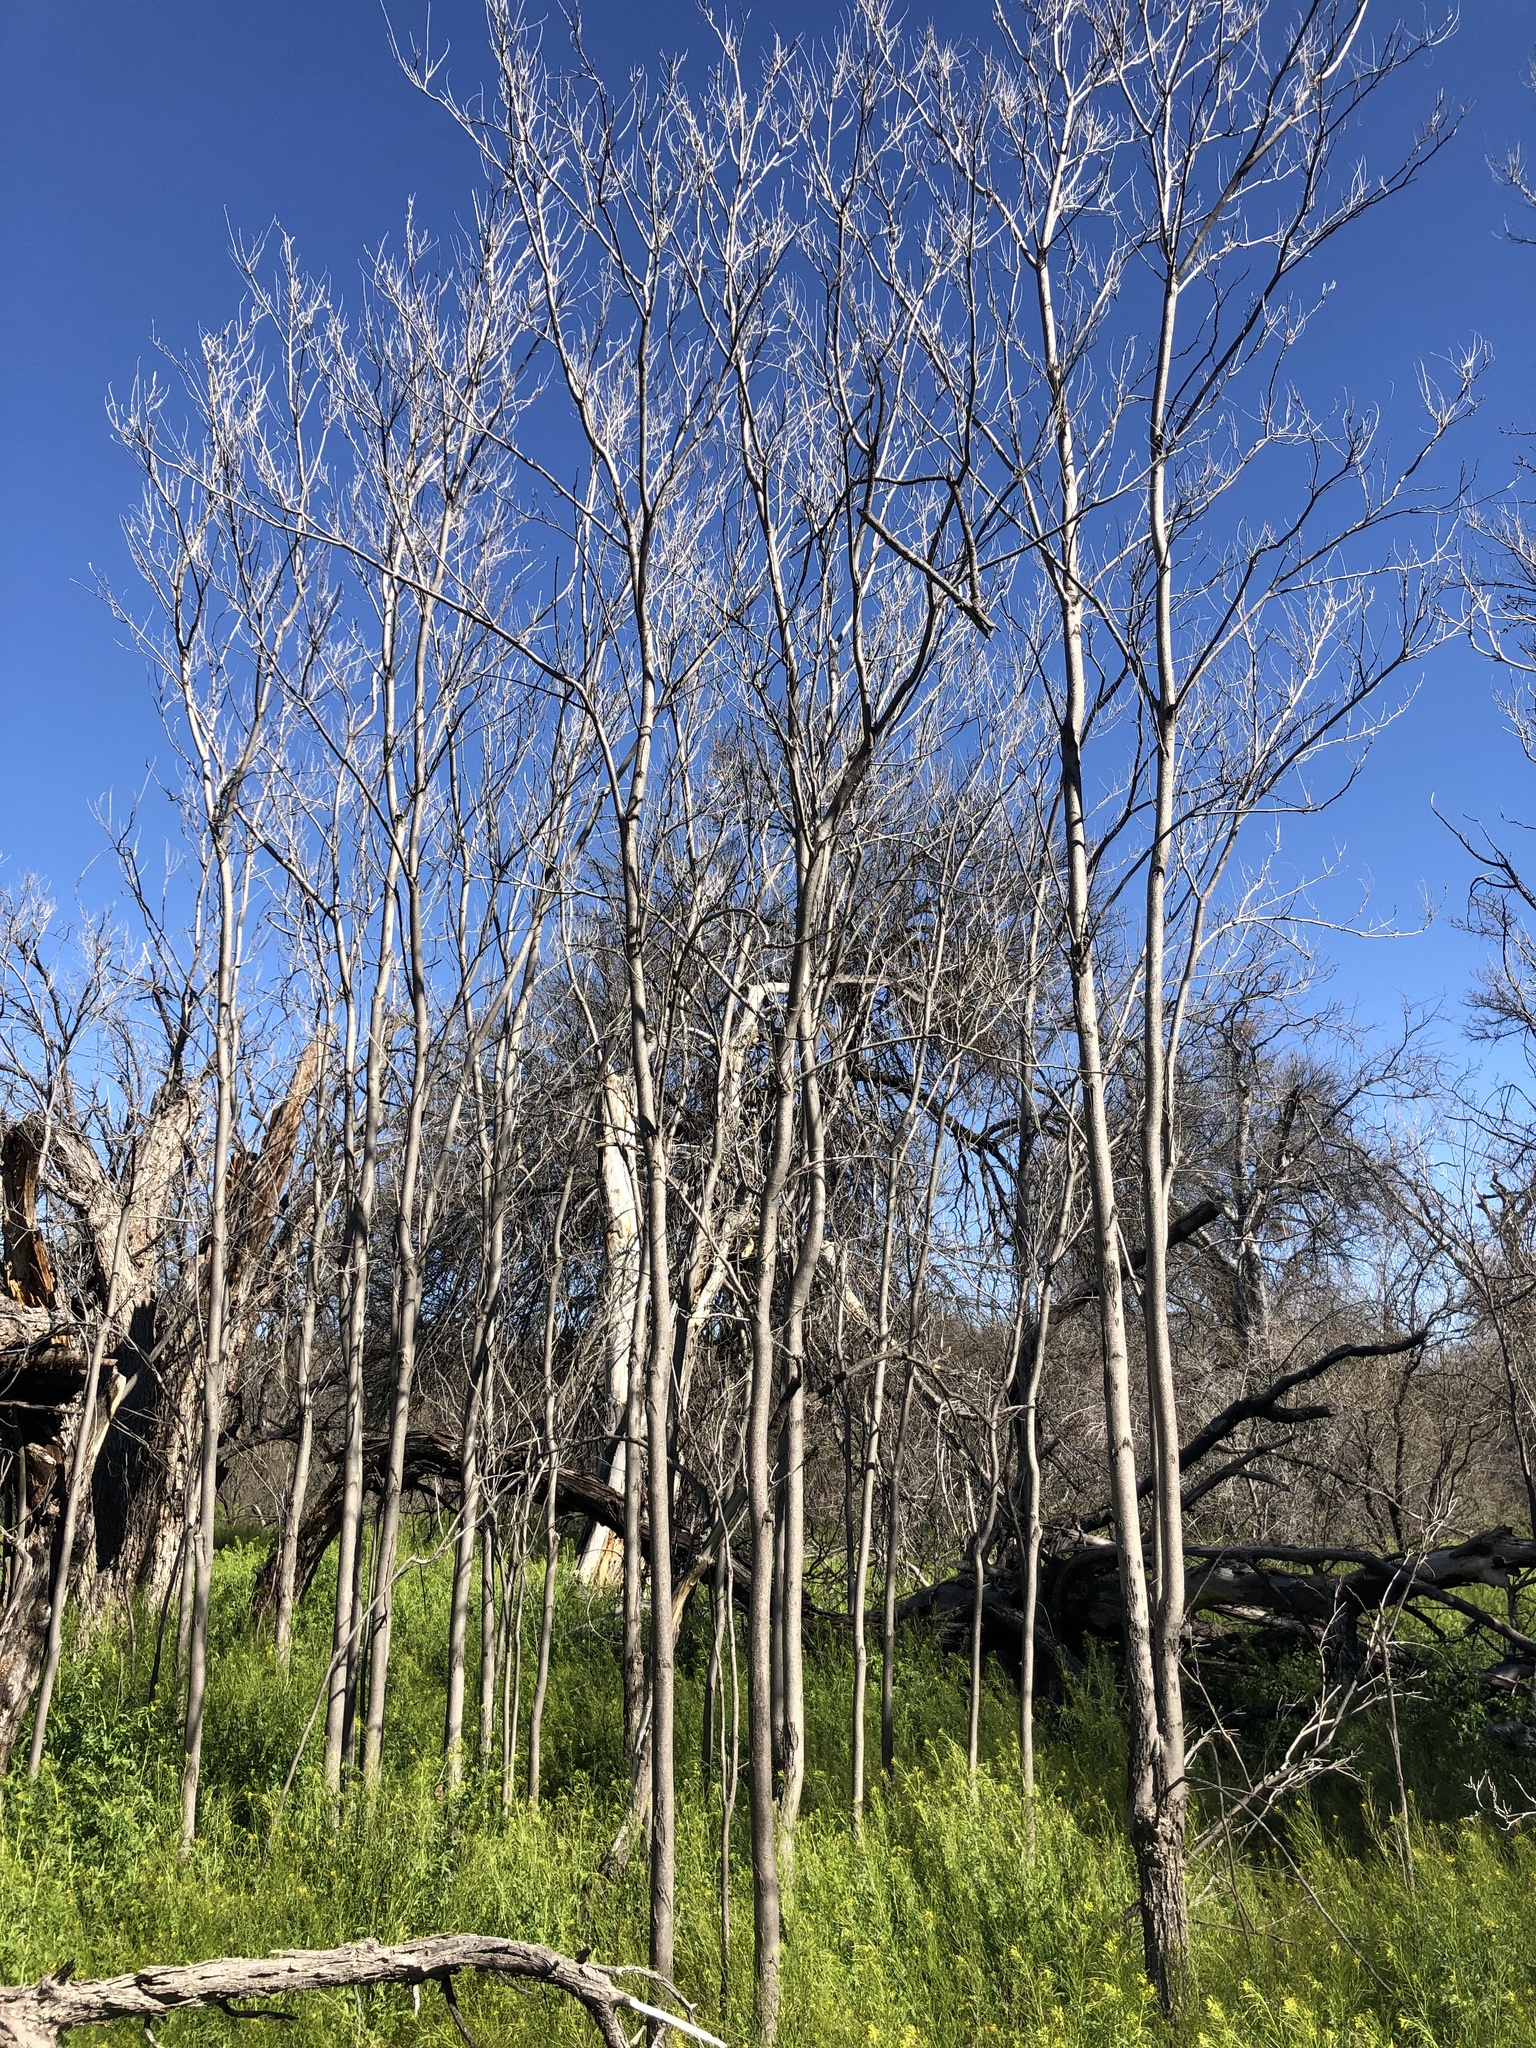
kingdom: Plantae
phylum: Tracheophyta
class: Magnoliopsida
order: Sapindales
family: Sapindaceae
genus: Sapindus
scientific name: Sapindus drummondii
